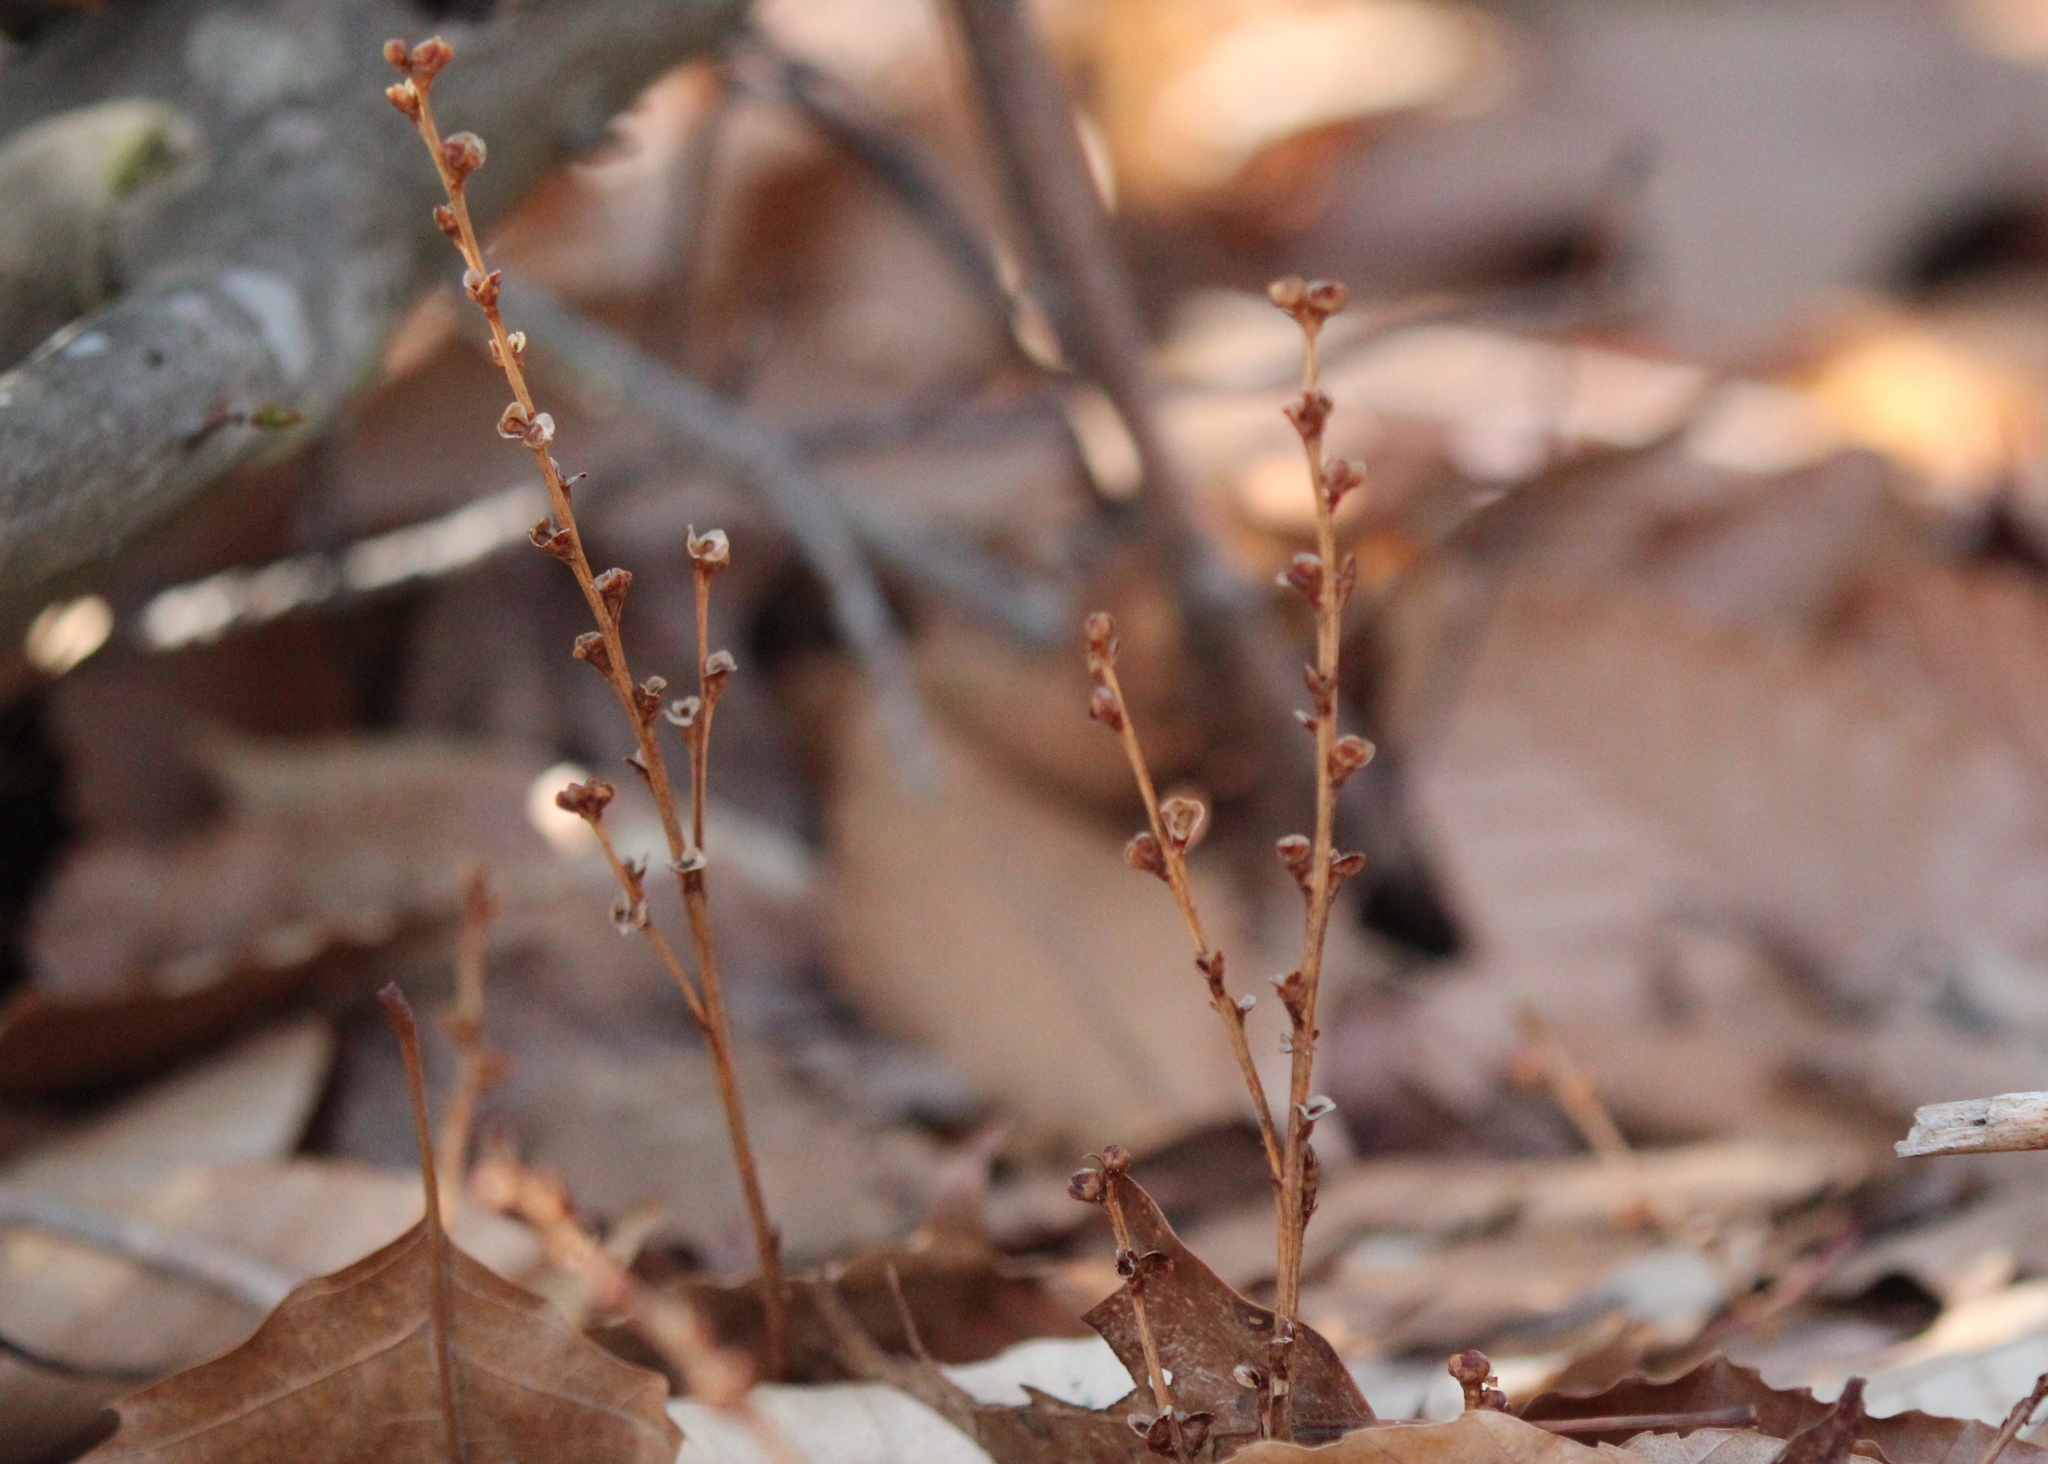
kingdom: Plantae
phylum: Tracheophyta
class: Magnoliopsida
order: Lamiales
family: Orobanchaceae
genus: Epifagus
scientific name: Epifagus virginiana
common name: Beechdrops
